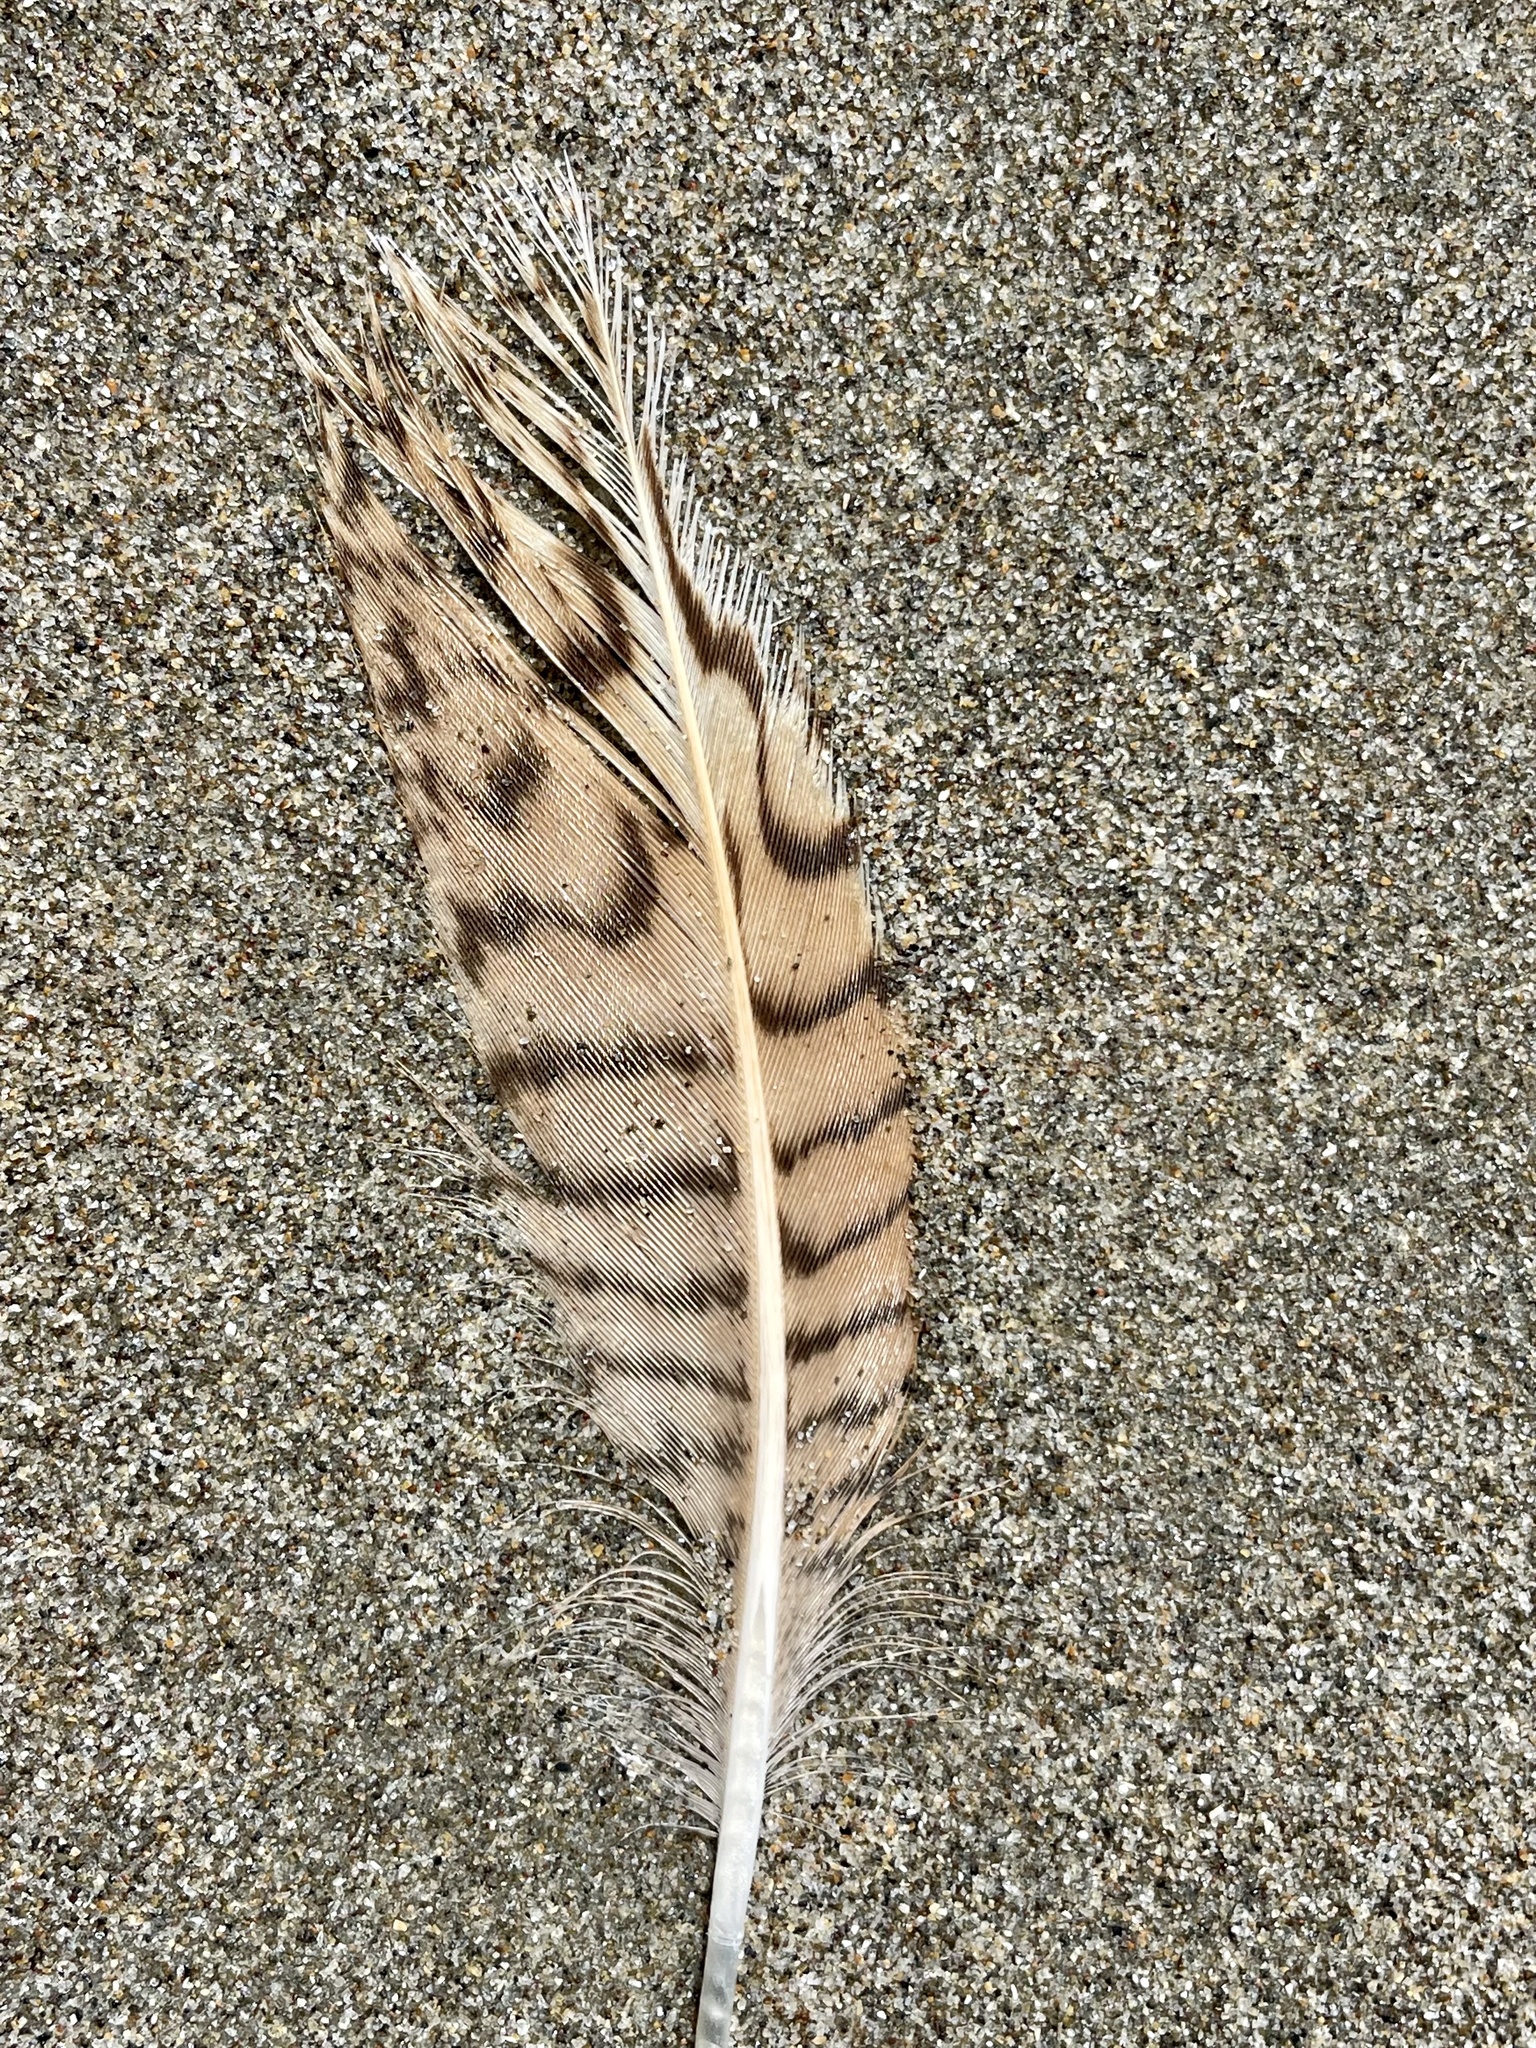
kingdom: Animalia
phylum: Chordata
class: Aves
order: Charadriiformes
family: Scolopacidae
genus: Limosa
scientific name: Limosa fedoa
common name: Marbled godwit
